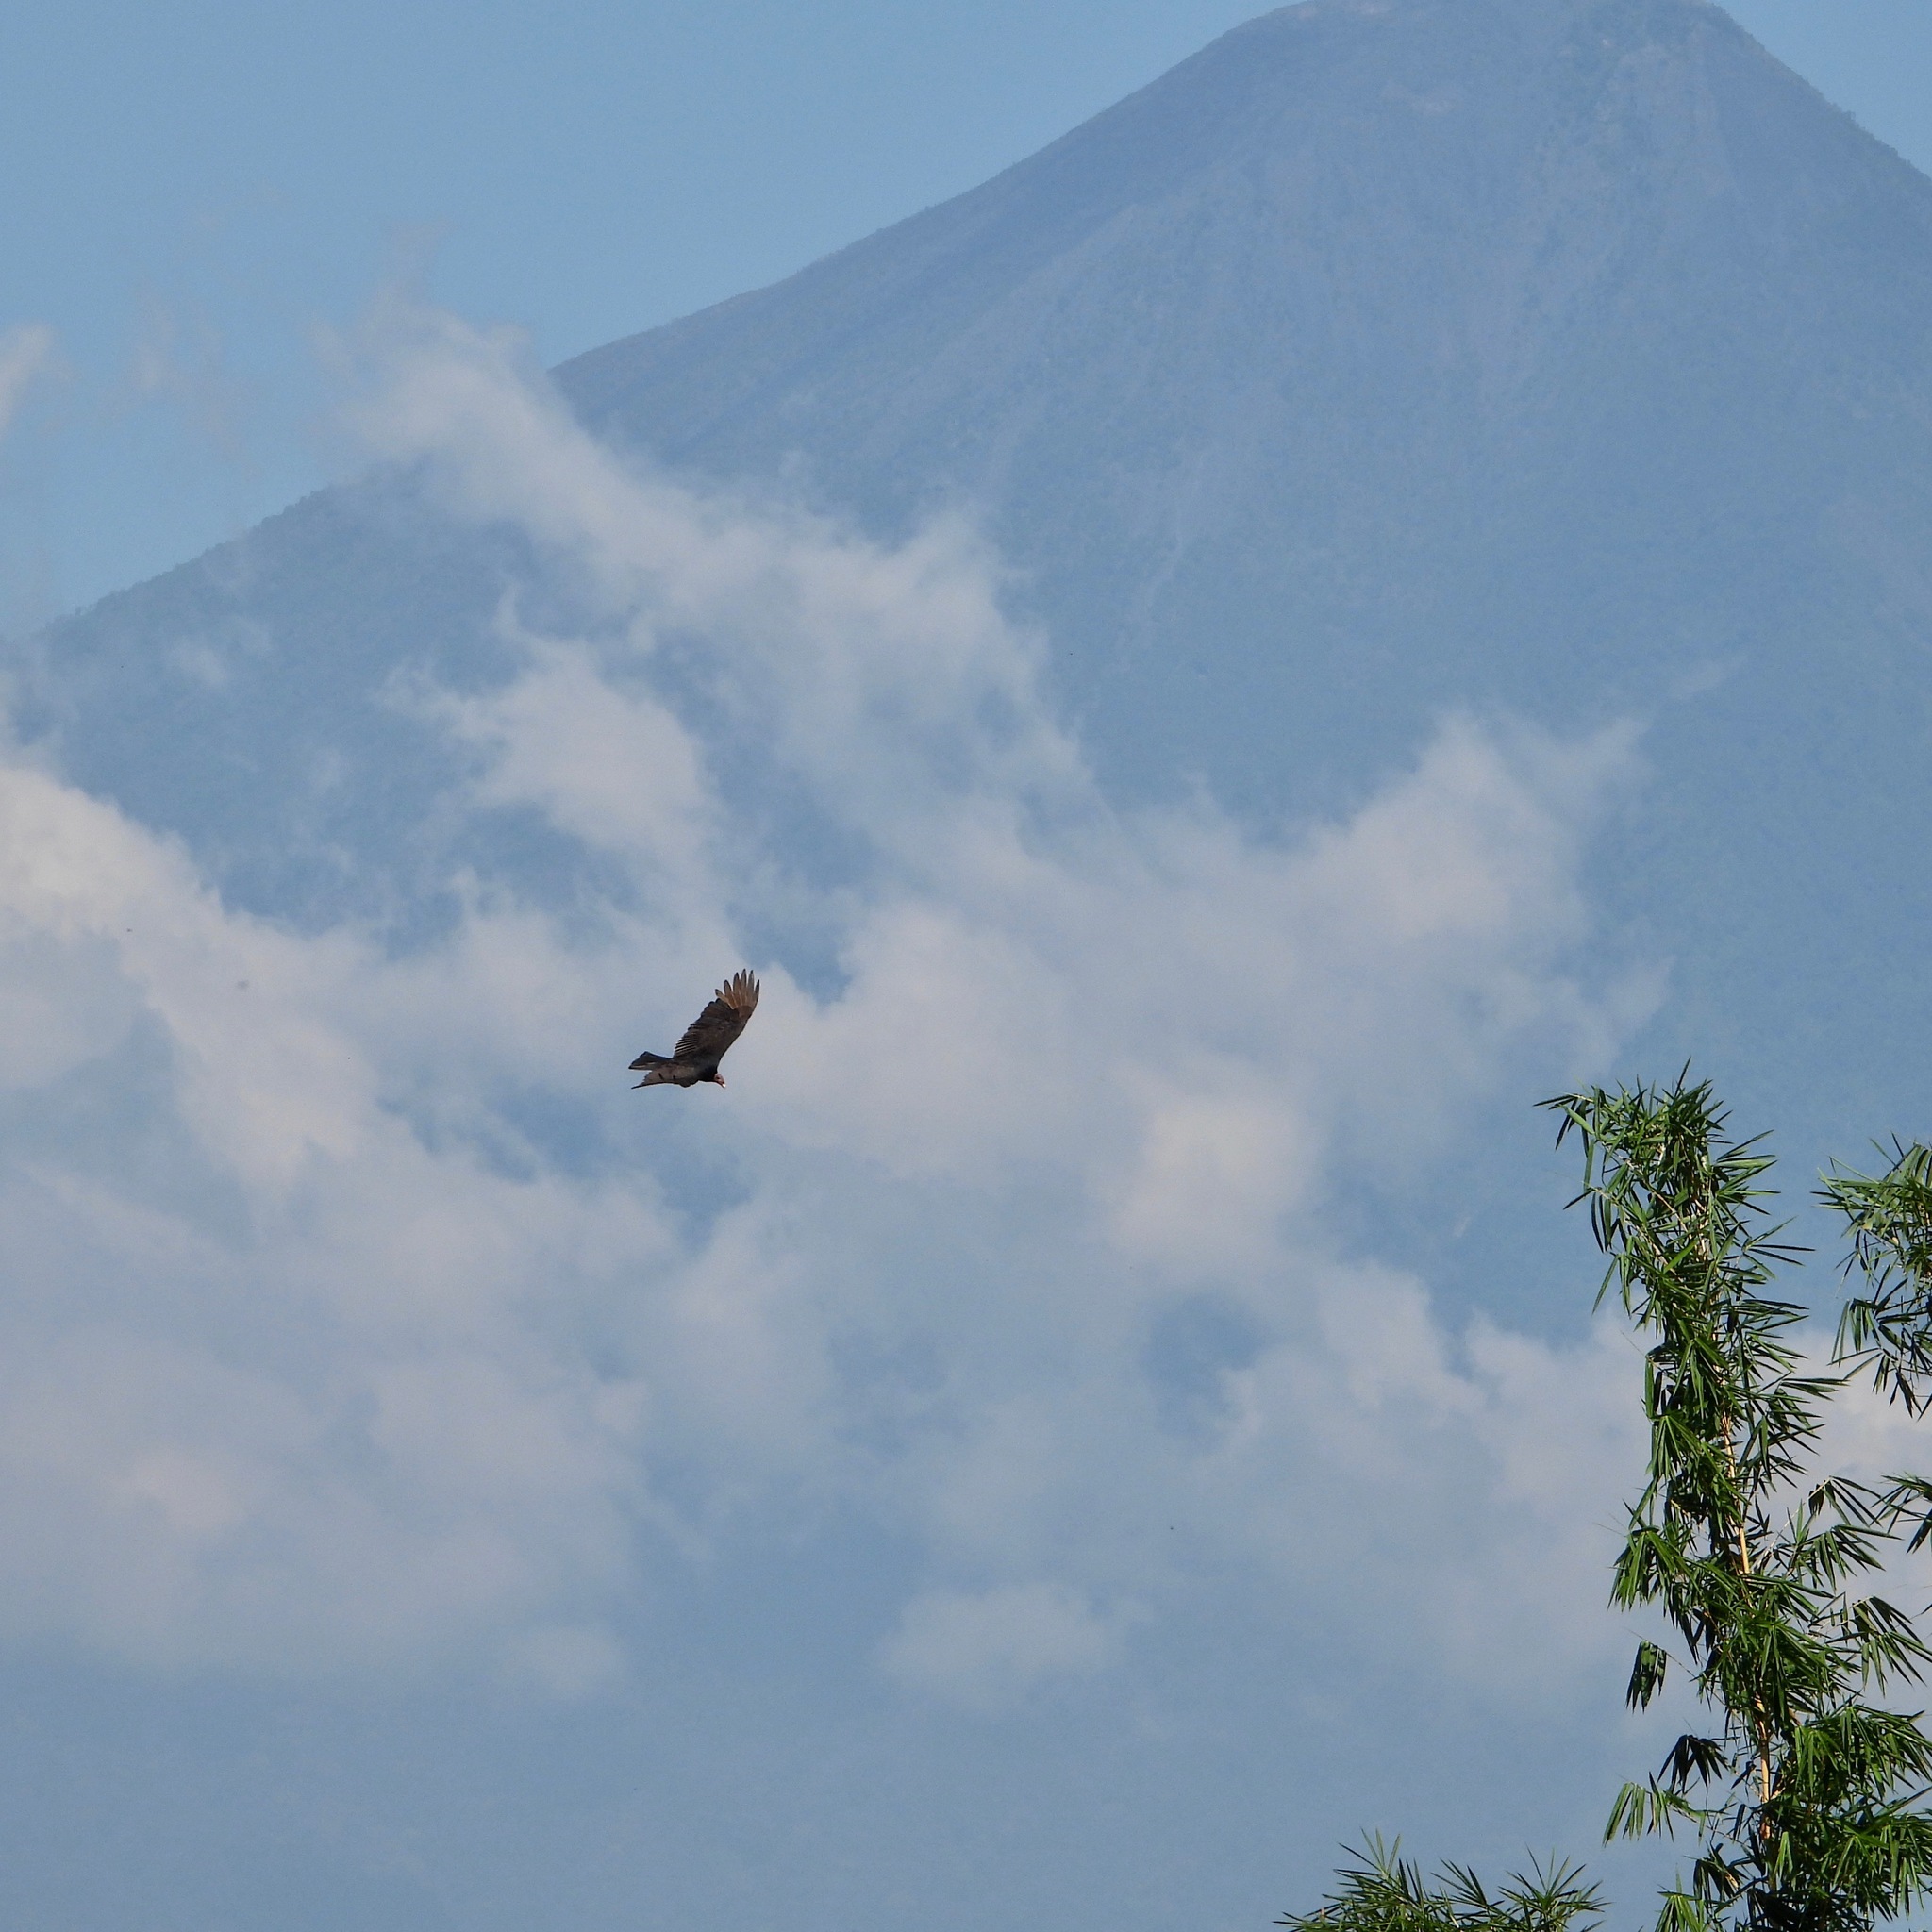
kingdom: Animalia
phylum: Chordata
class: Aves
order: Accipitriformes
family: Cathartidae
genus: Cathartes
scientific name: Cathartes aura
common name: Turkey vulture
